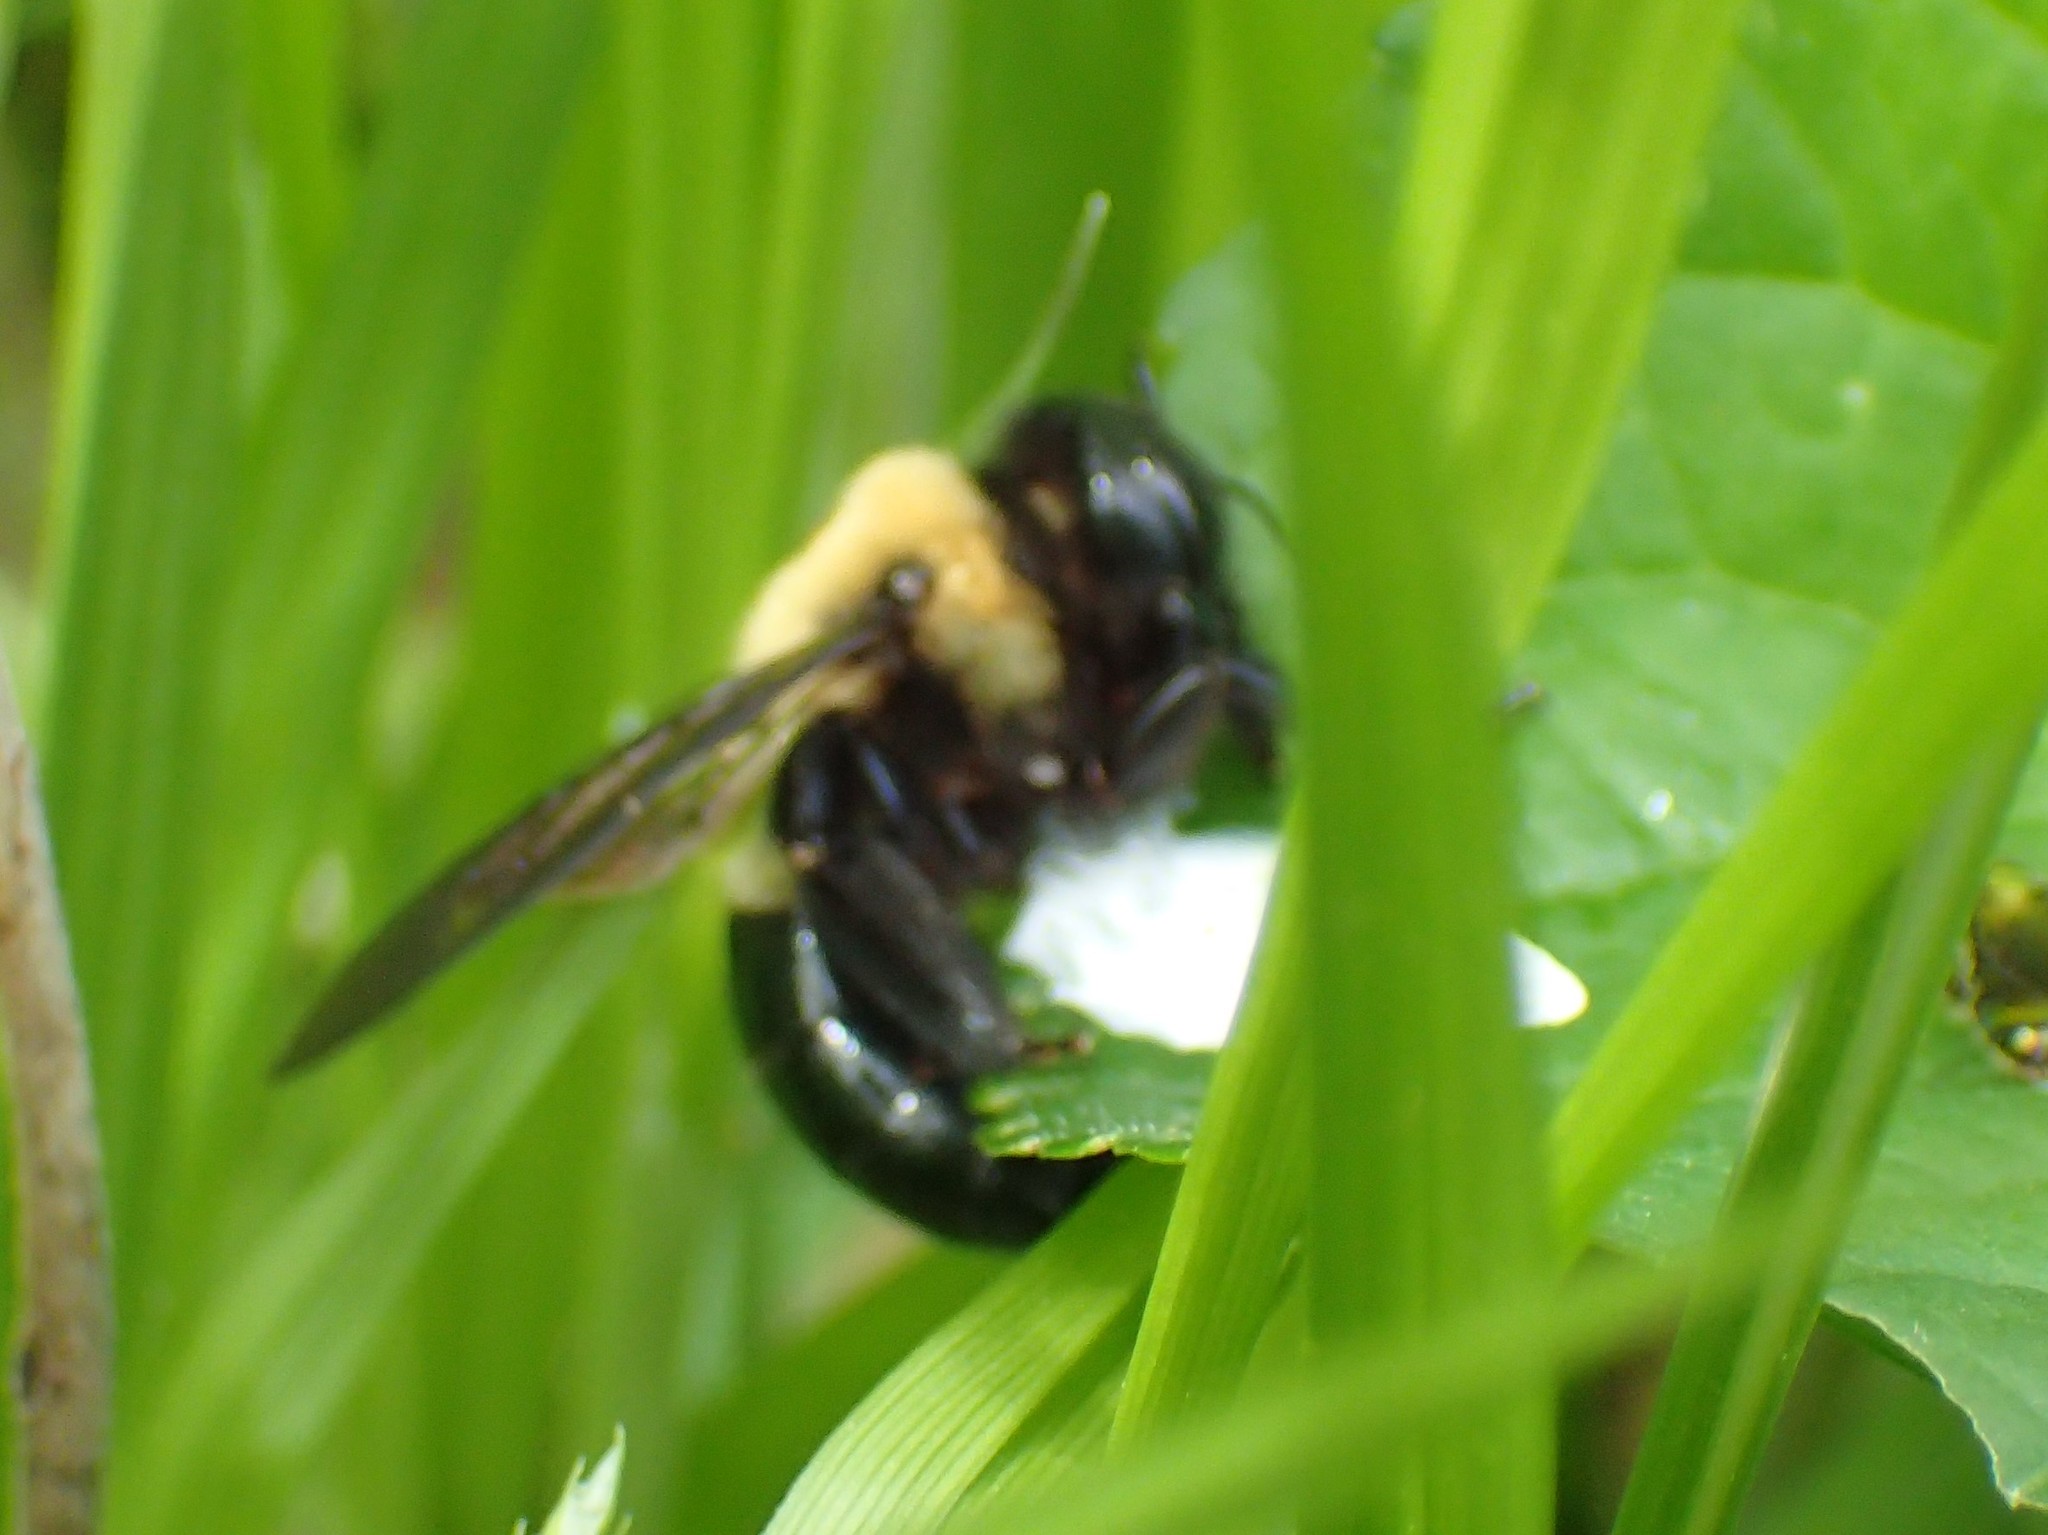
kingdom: Animalia
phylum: Arthropoda
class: Insecta
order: Hymenoptera
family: Apidae
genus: Xylocopa
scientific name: Xylocopa virginica
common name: Carpenter bee
